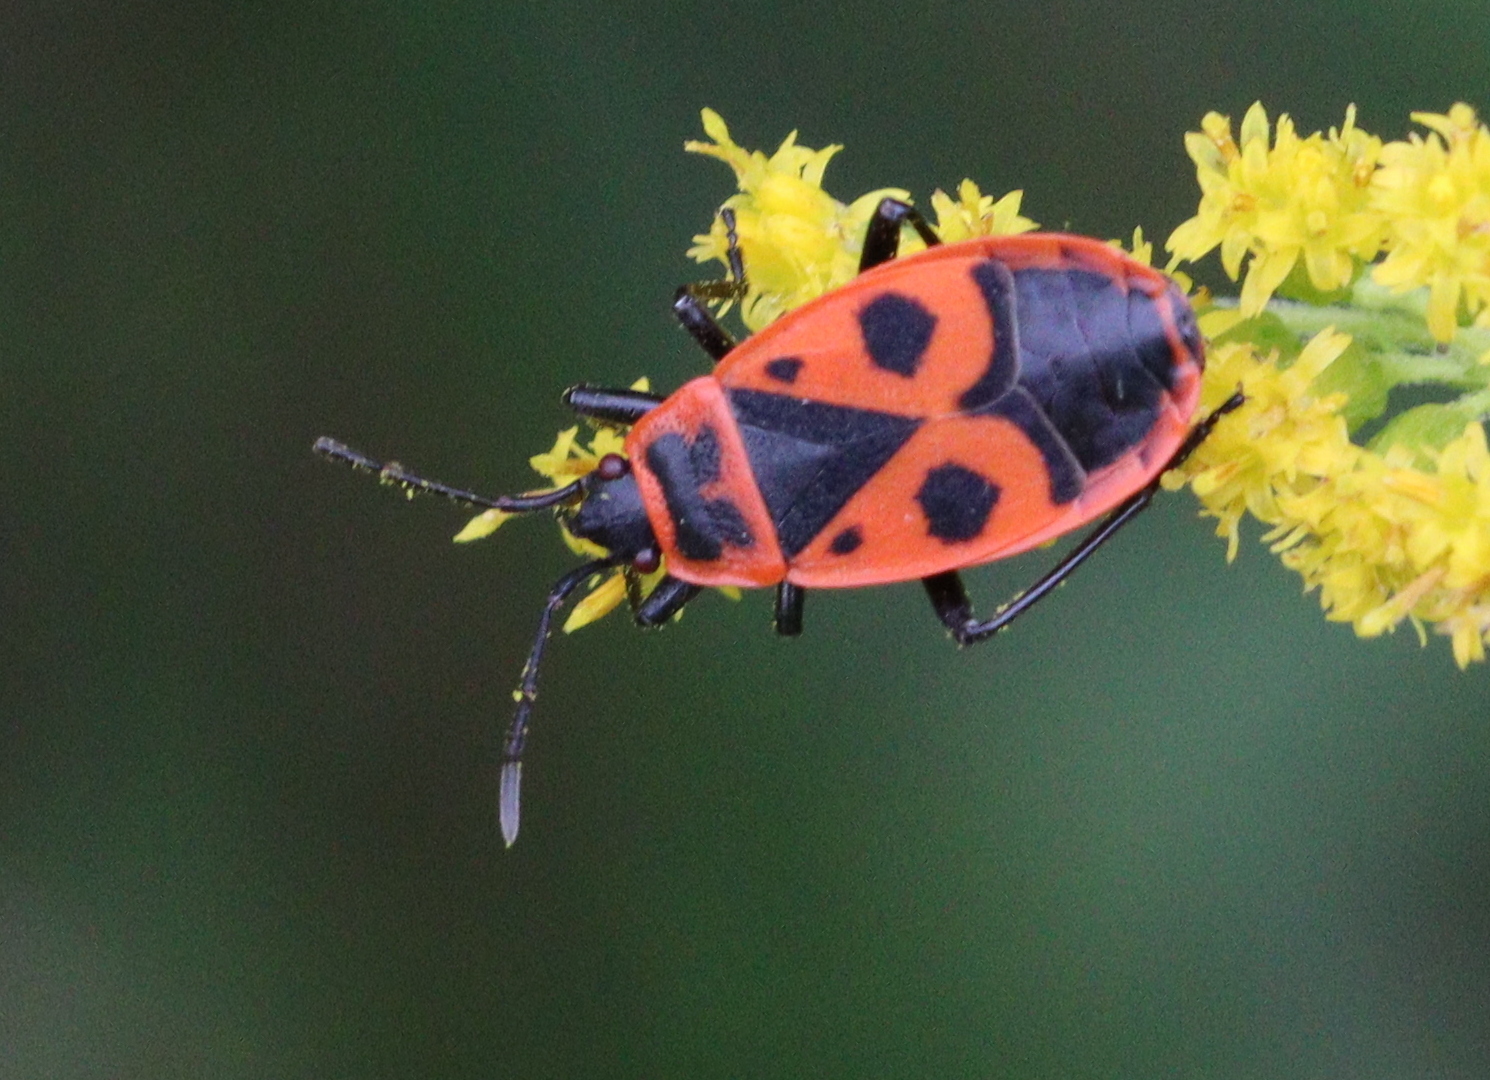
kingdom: Animalia
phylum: Arthropoda
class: Insecta
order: Hemiptera
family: Pyrrhocoridae
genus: Pyrrhocoris
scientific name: Pyrrhocoris apterus
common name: Firebug
